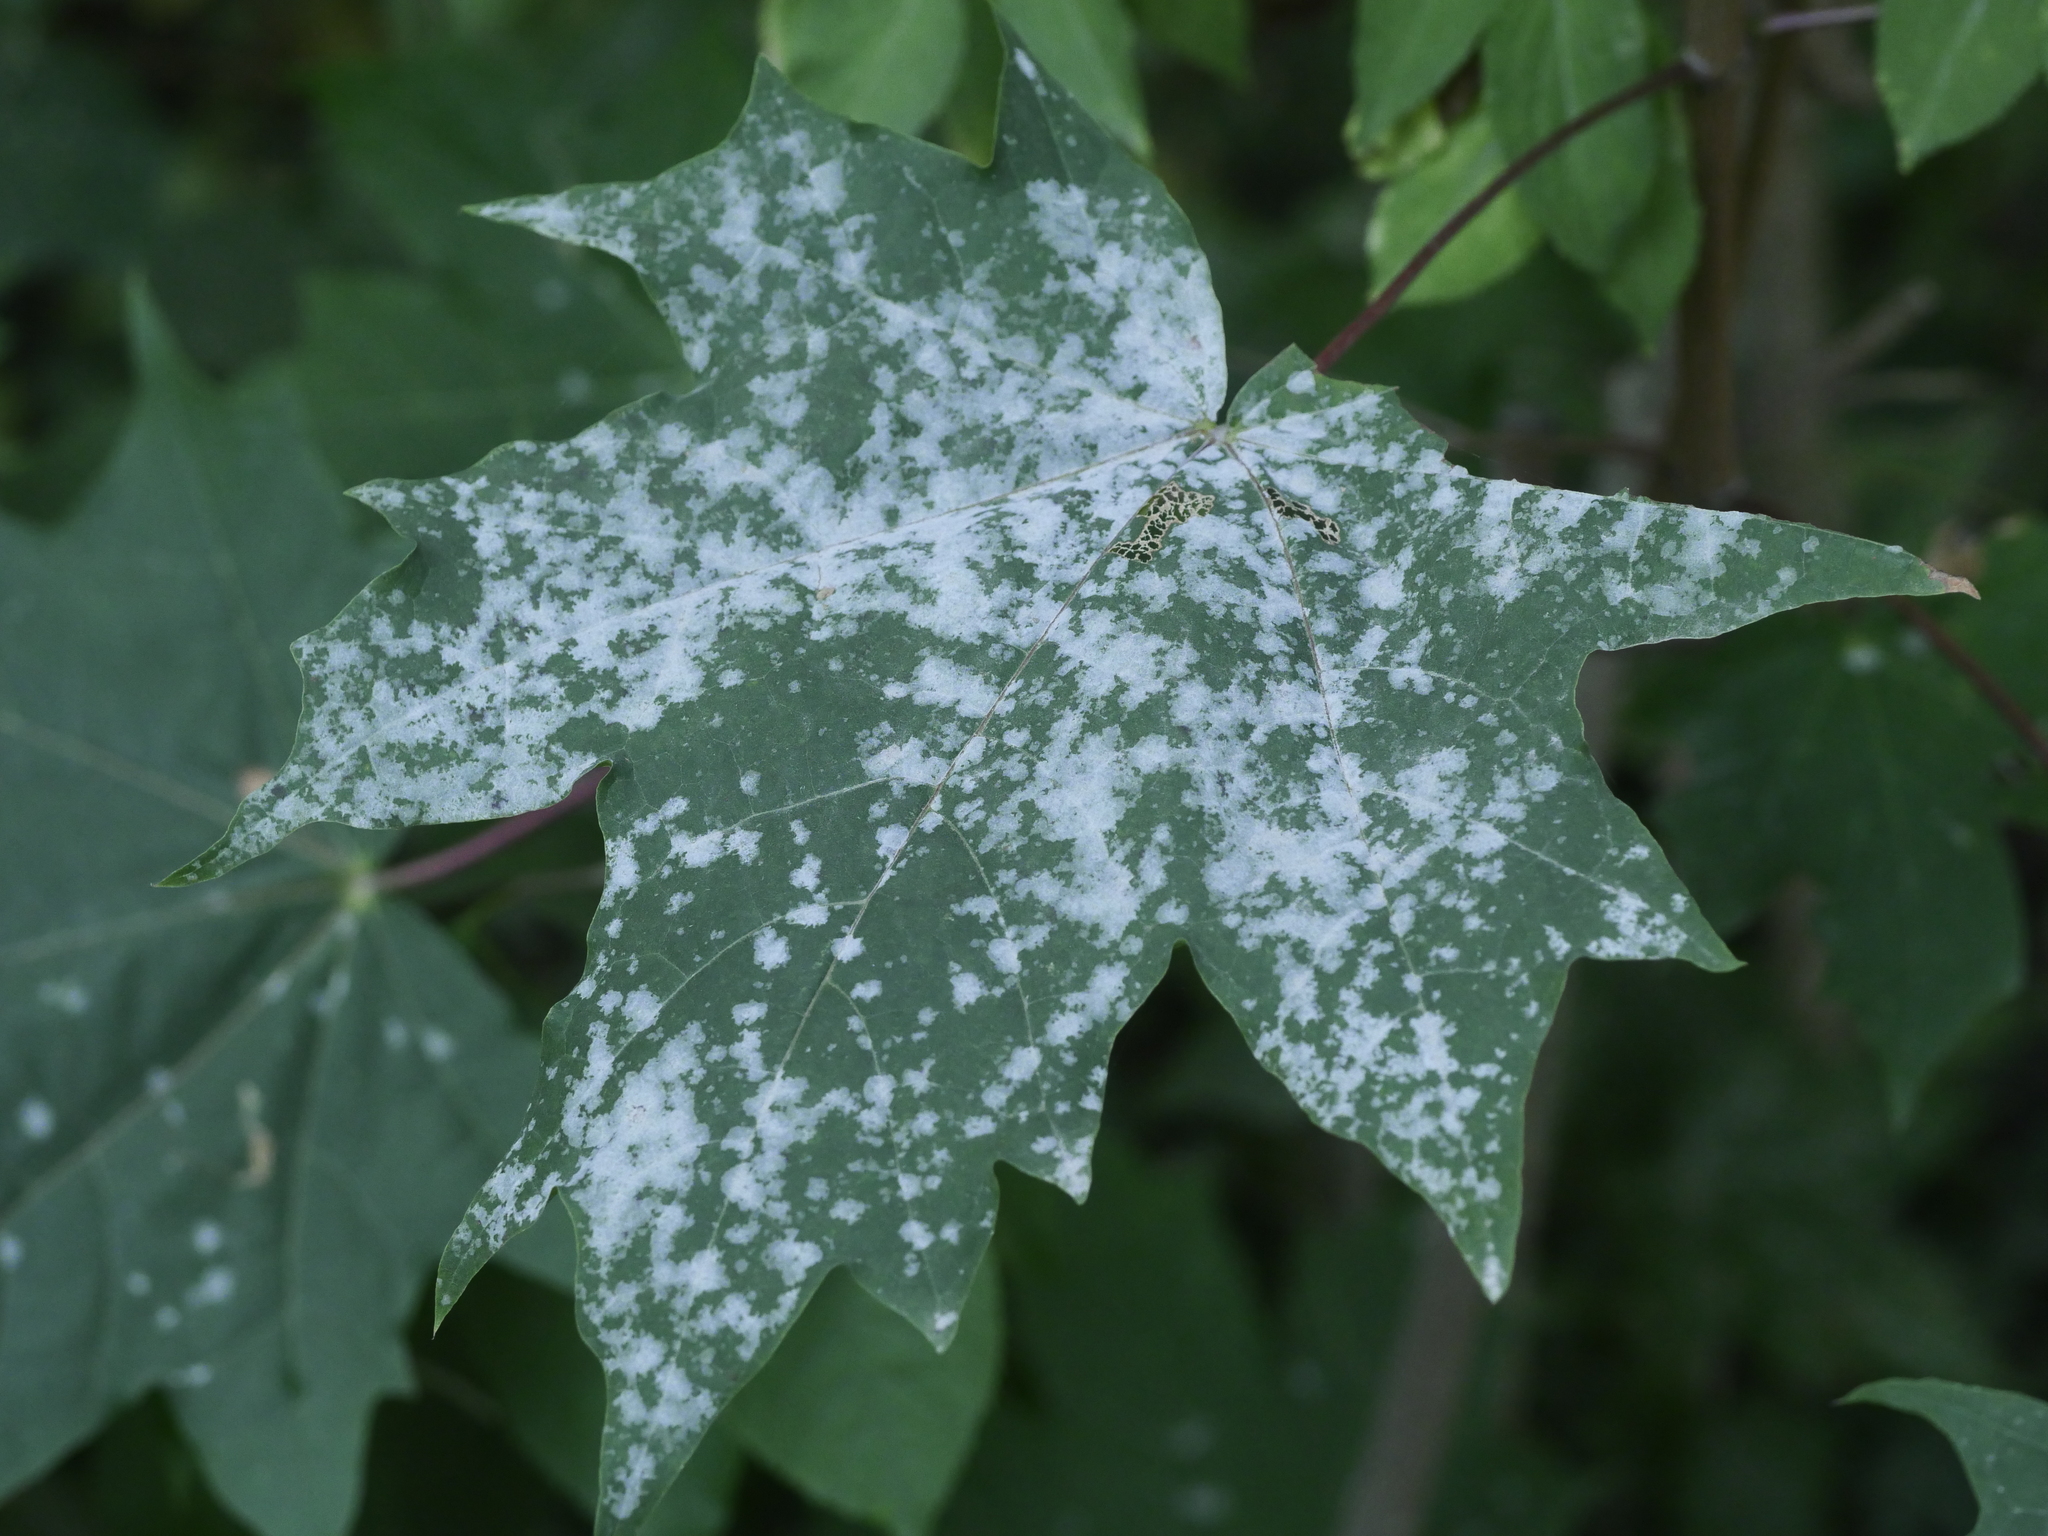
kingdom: Plantae
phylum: Tracheophyta
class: Magnoliopsida
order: Sapindales
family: Sapindaceae
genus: Acer
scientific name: Acer platanoides
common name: Norway maple
